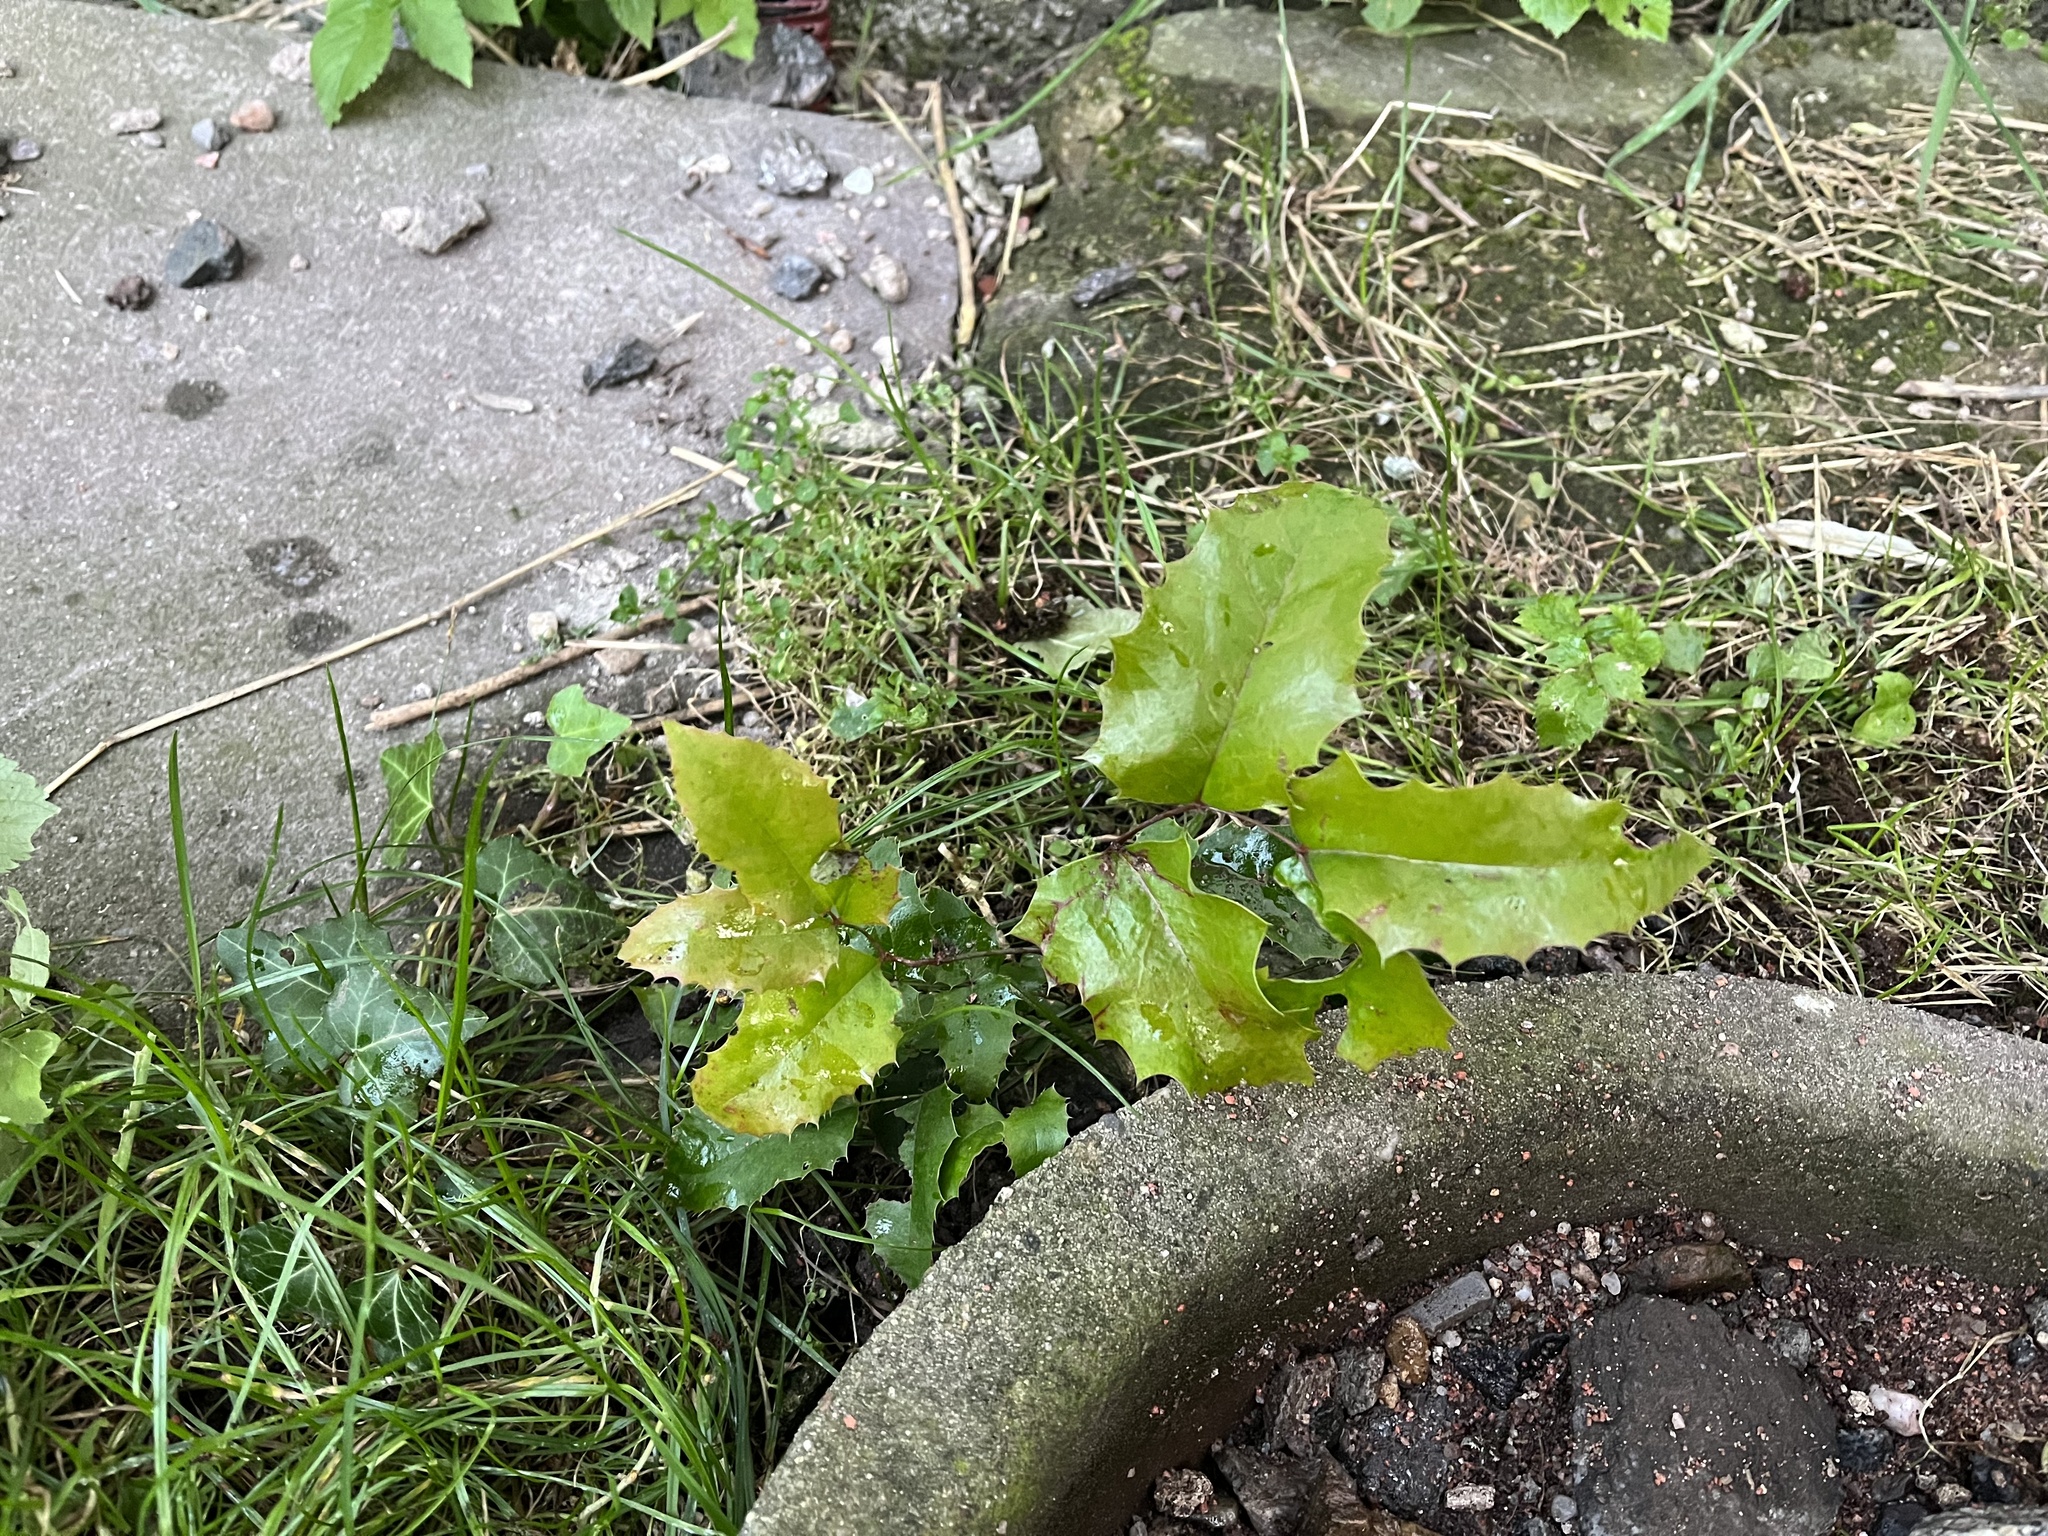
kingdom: Plantae
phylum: Tracheophyta
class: Magnoliopsida
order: Ranunculales
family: Berberidaceae
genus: Mahonia
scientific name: Mahonia aquifolium
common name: Oregon-grape
